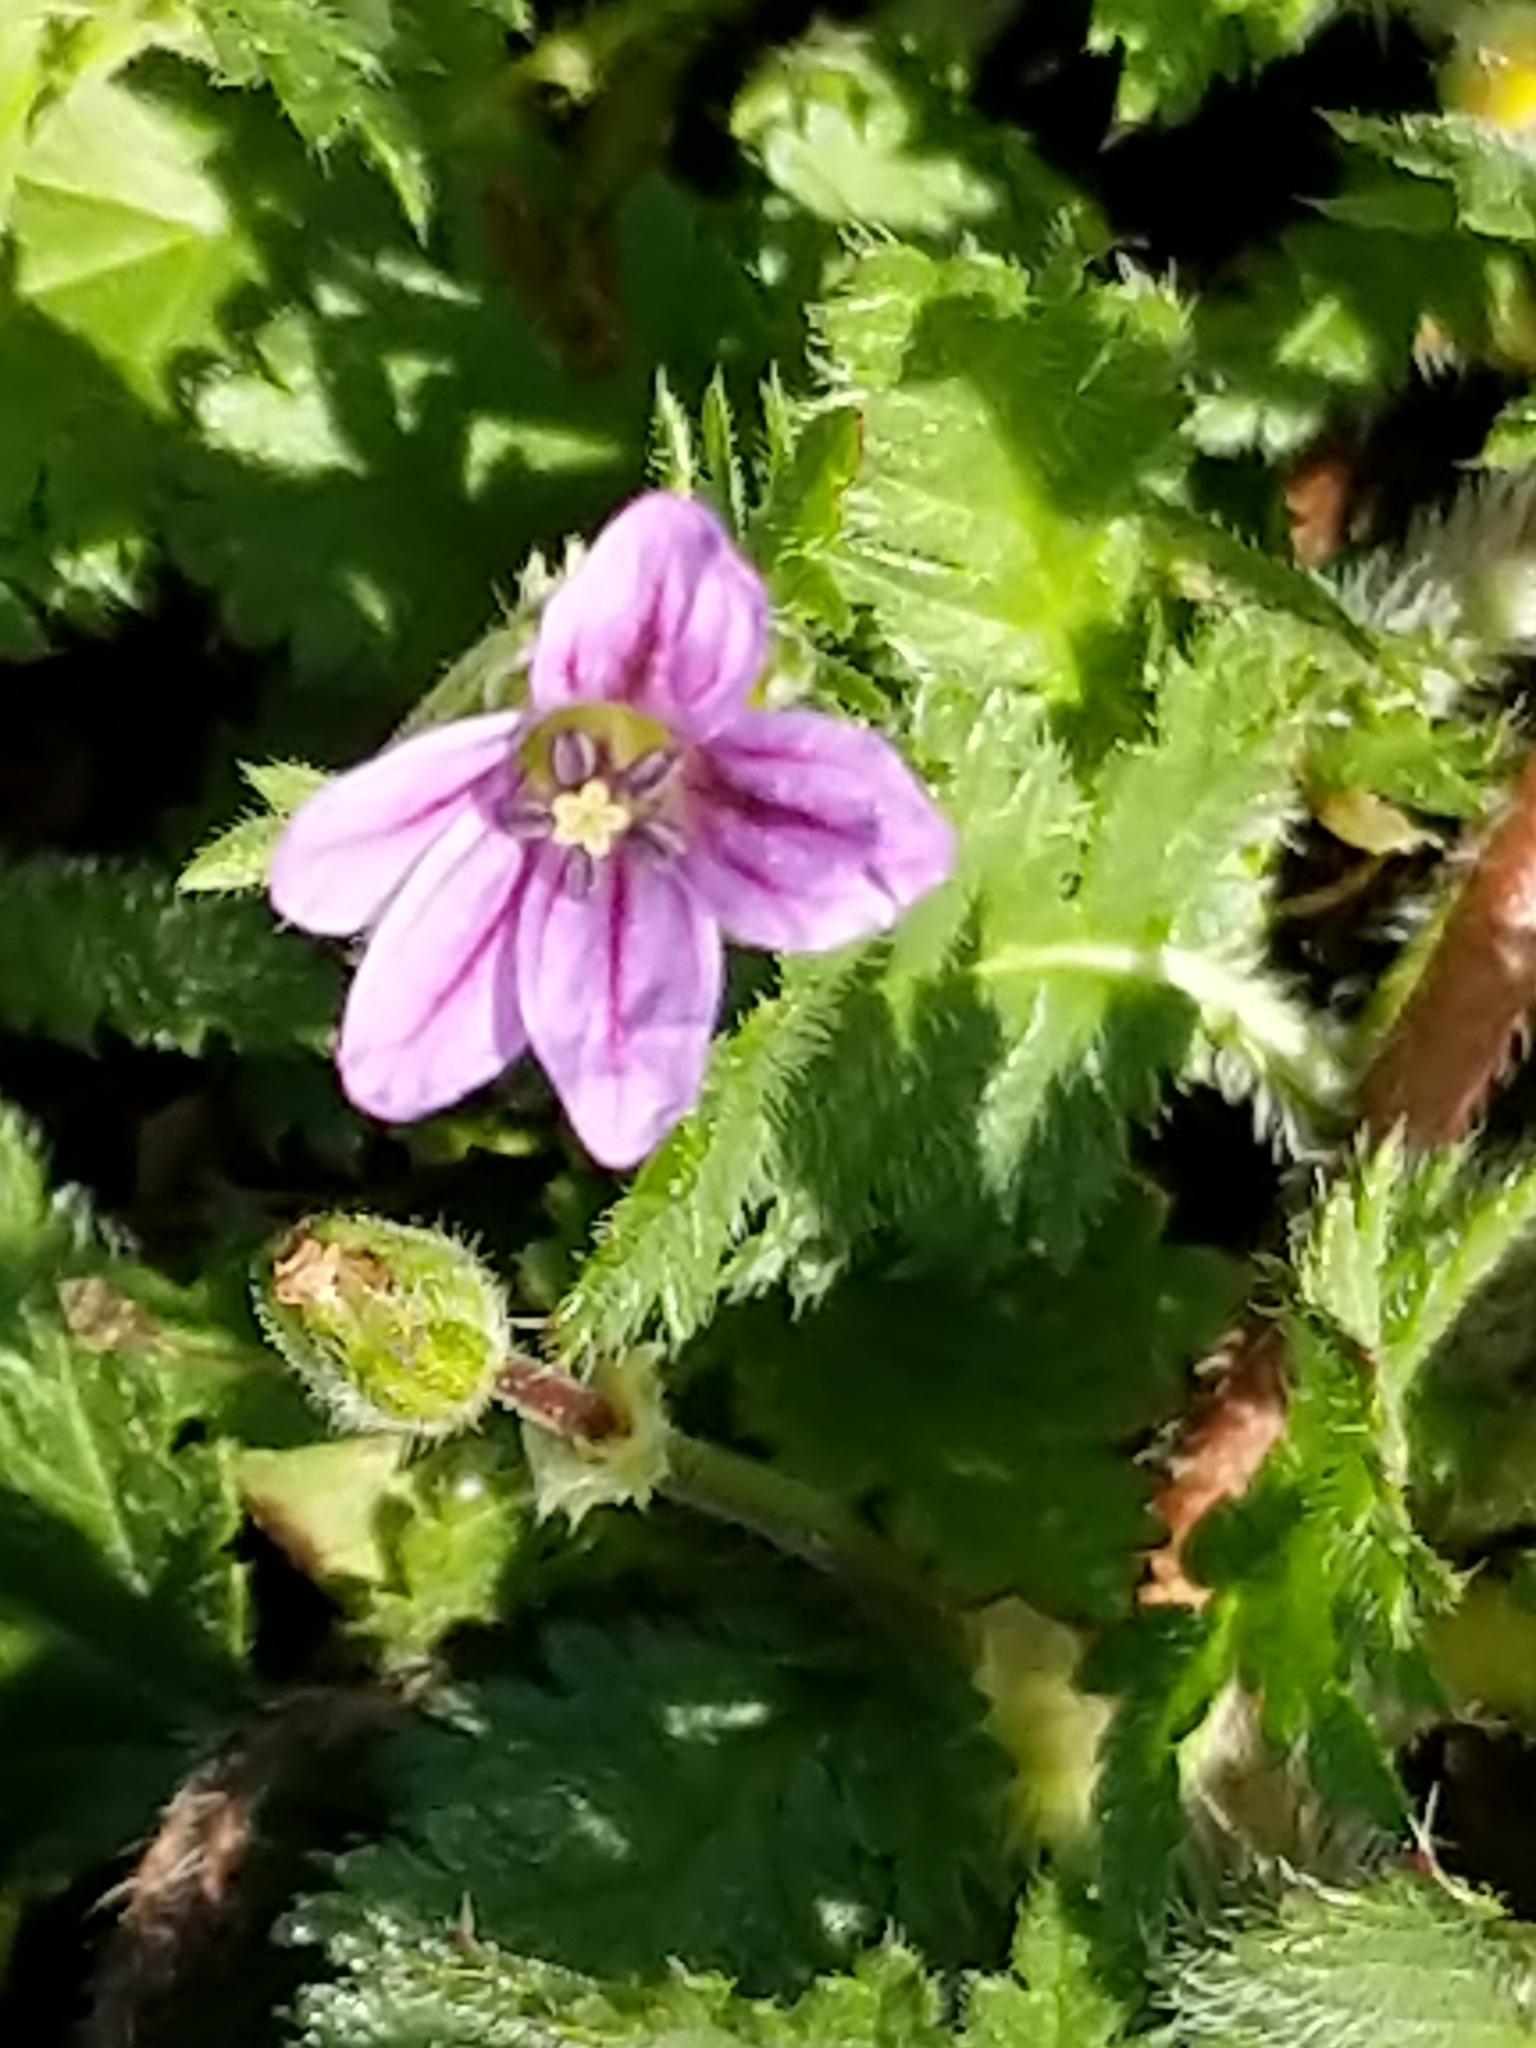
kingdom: Plantae
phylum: Tracheophyta
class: Magnoliopsida
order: Geraniales
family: Geraniaceae
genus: Erodium
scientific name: Erodium brachycarpum
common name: Hairy-pitted stork's-bill
